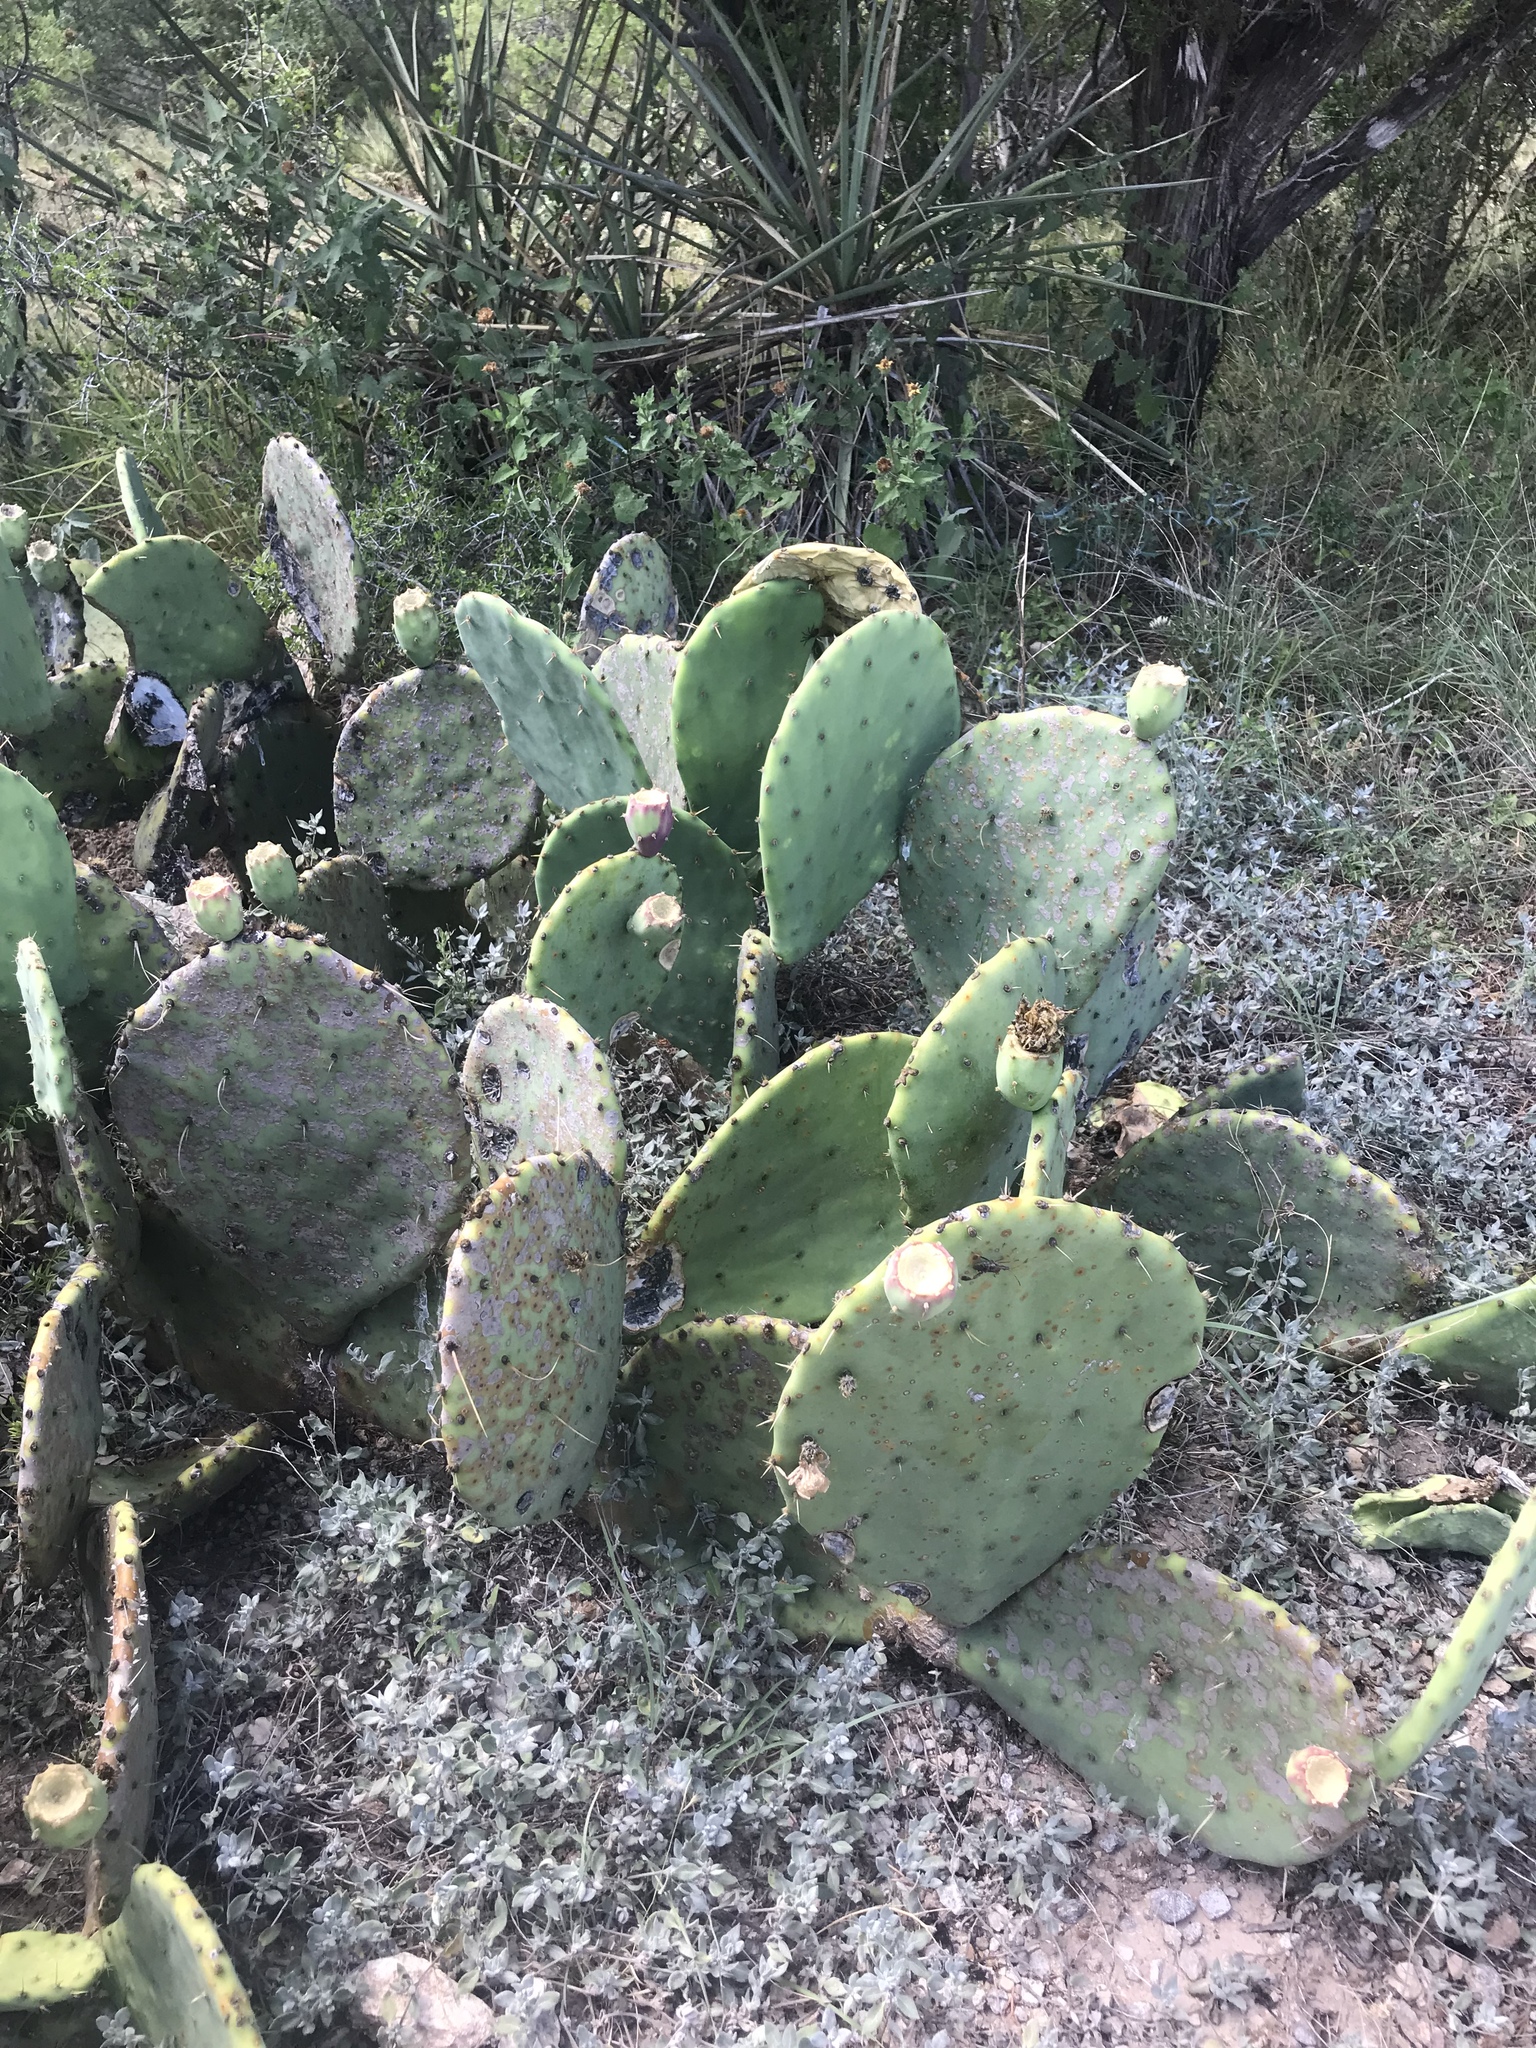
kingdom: Plantae
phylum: Tracheophyta
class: Magnoliopsida
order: Caryophyllales
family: Cactaceae
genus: Opuntia
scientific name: Opuntia orbiculata
